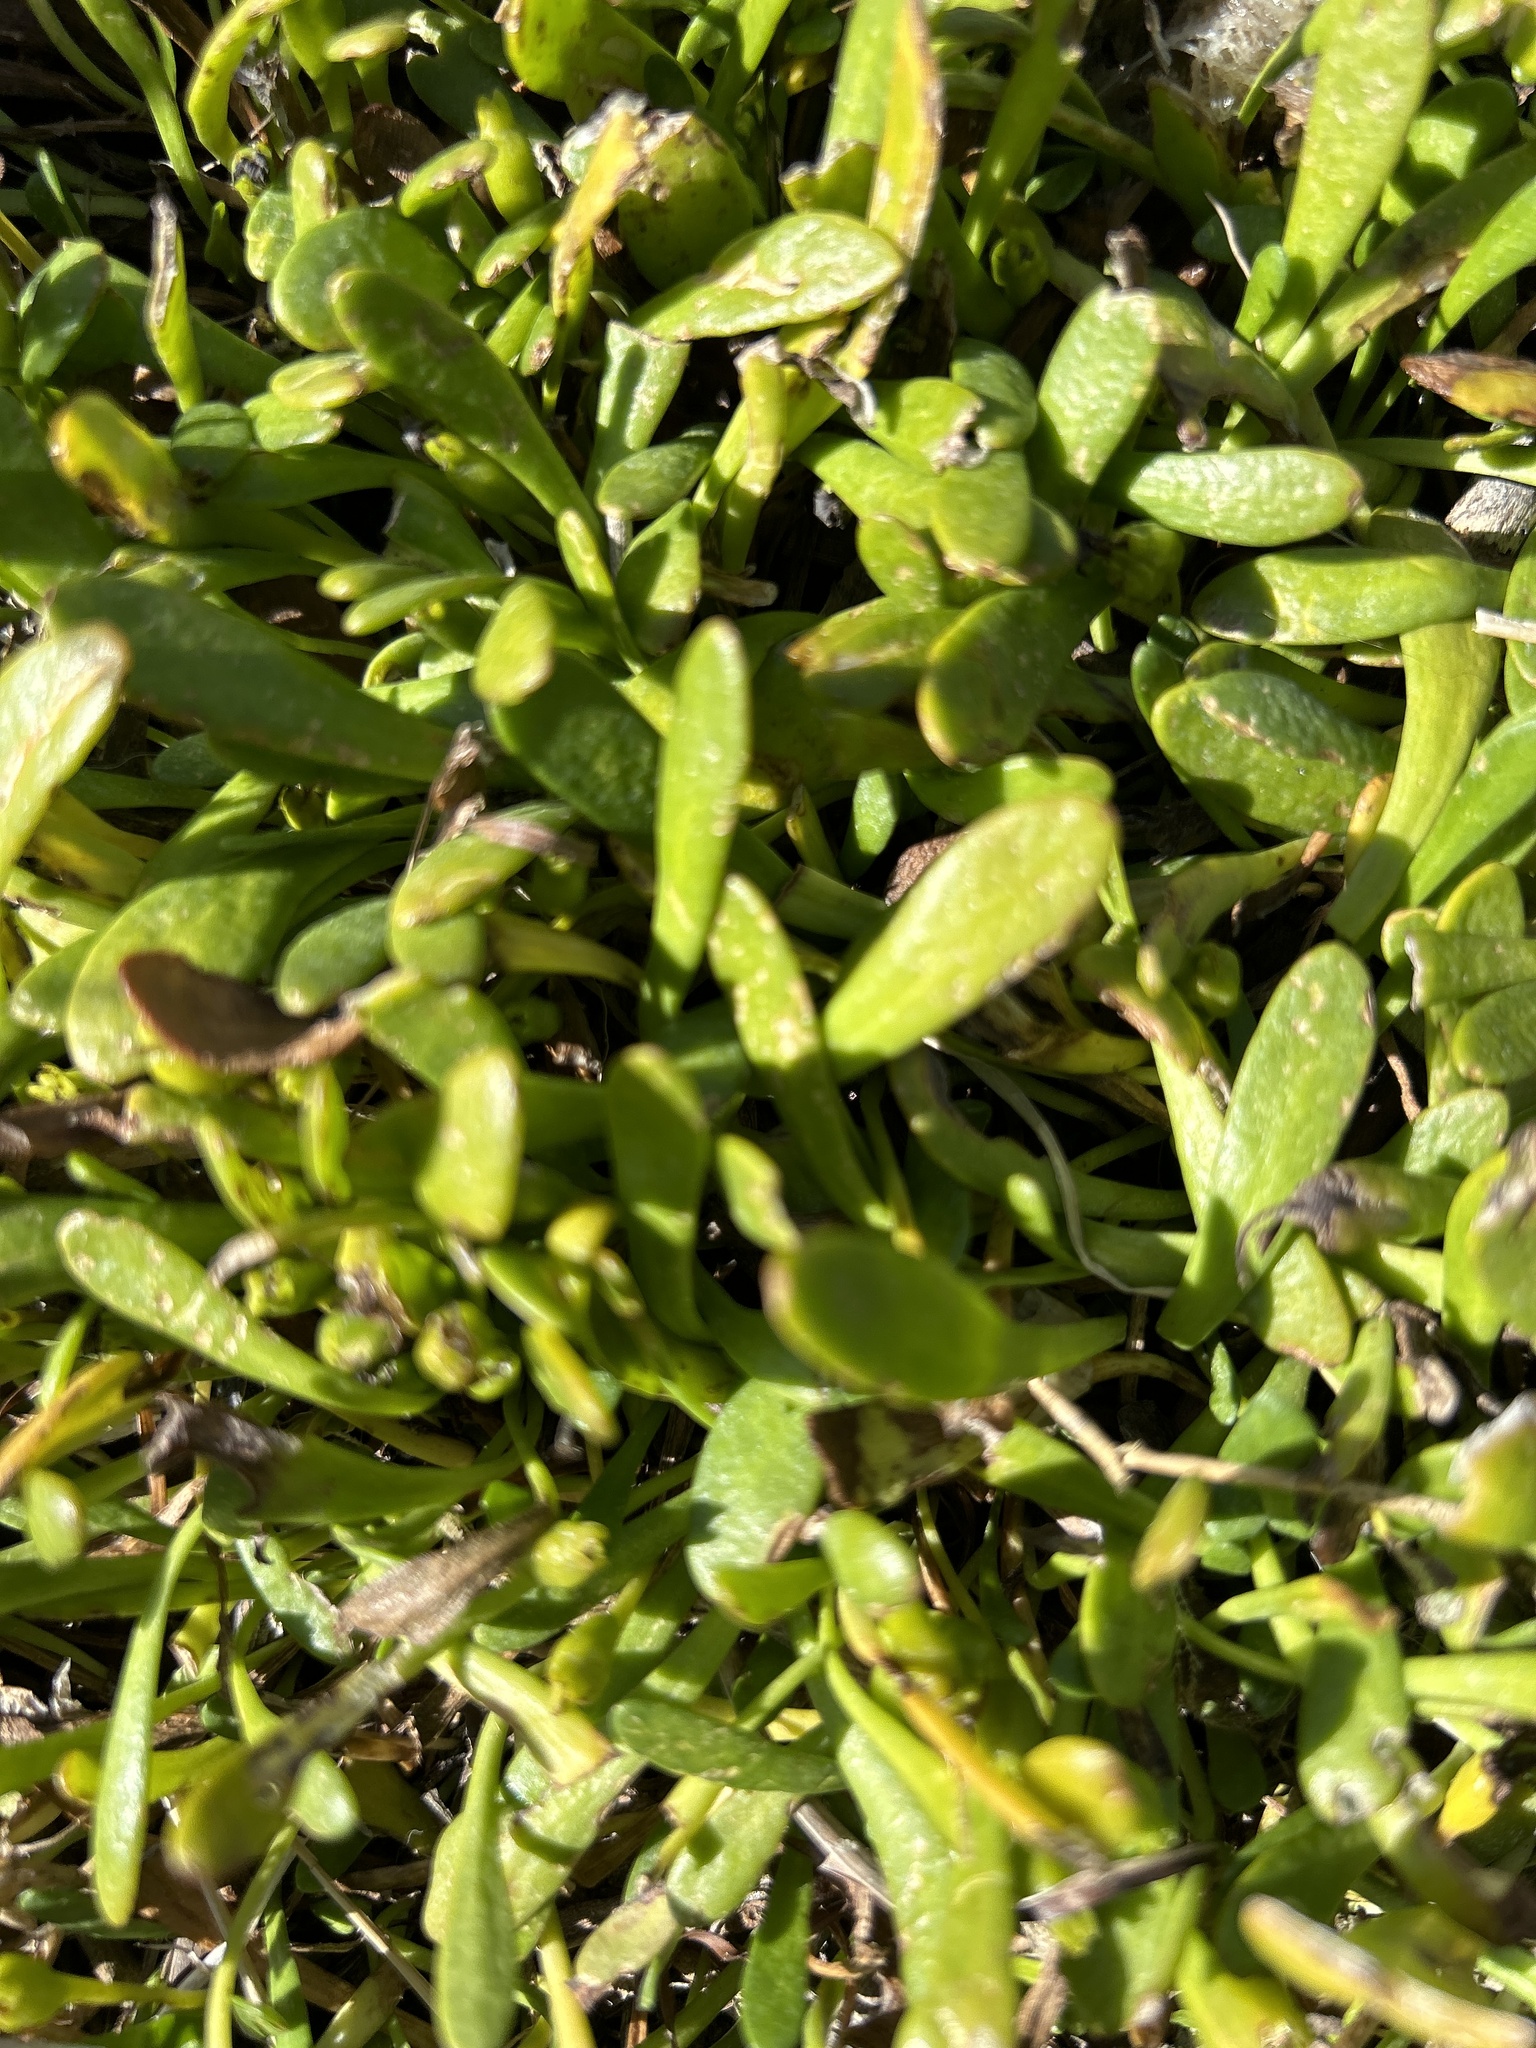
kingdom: Plantae
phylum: Tracheophyta
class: Magnoliopsida
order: Asterales
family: Goodeniaceae
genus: Goodenia
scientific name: Goodenia radicans
